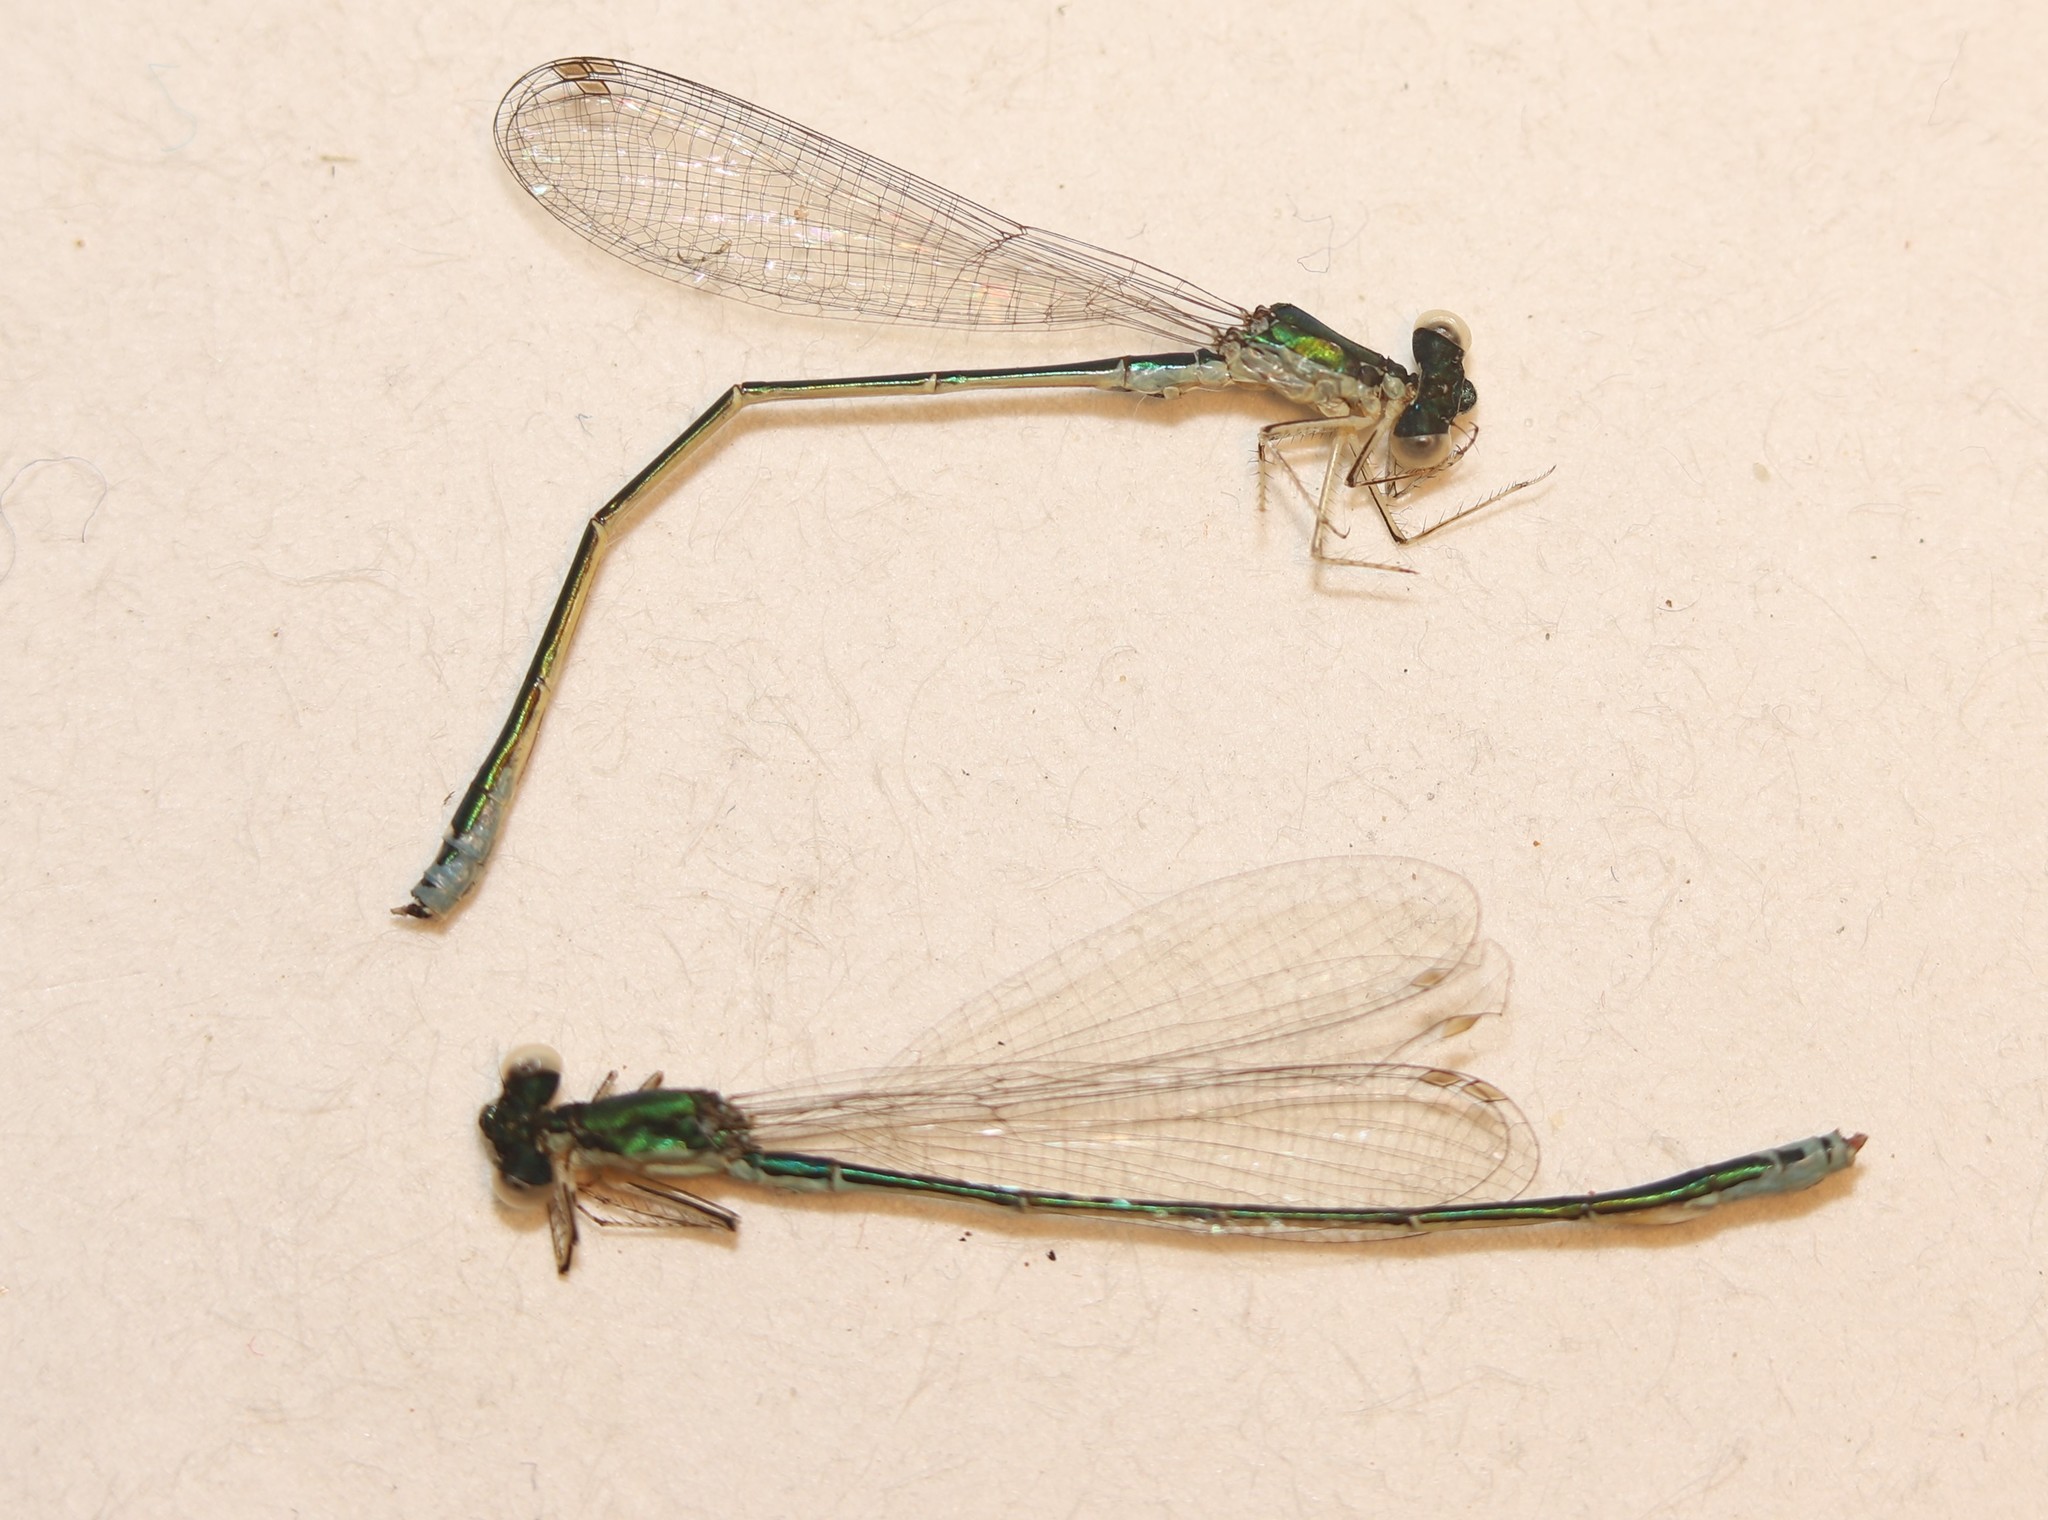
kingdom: Animalia
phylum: Arthropoda
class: Insecta
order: Odonata
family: Coenagrionidae
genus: Nehalennia
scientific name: Nehalennia irene
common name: Sedge sprite
